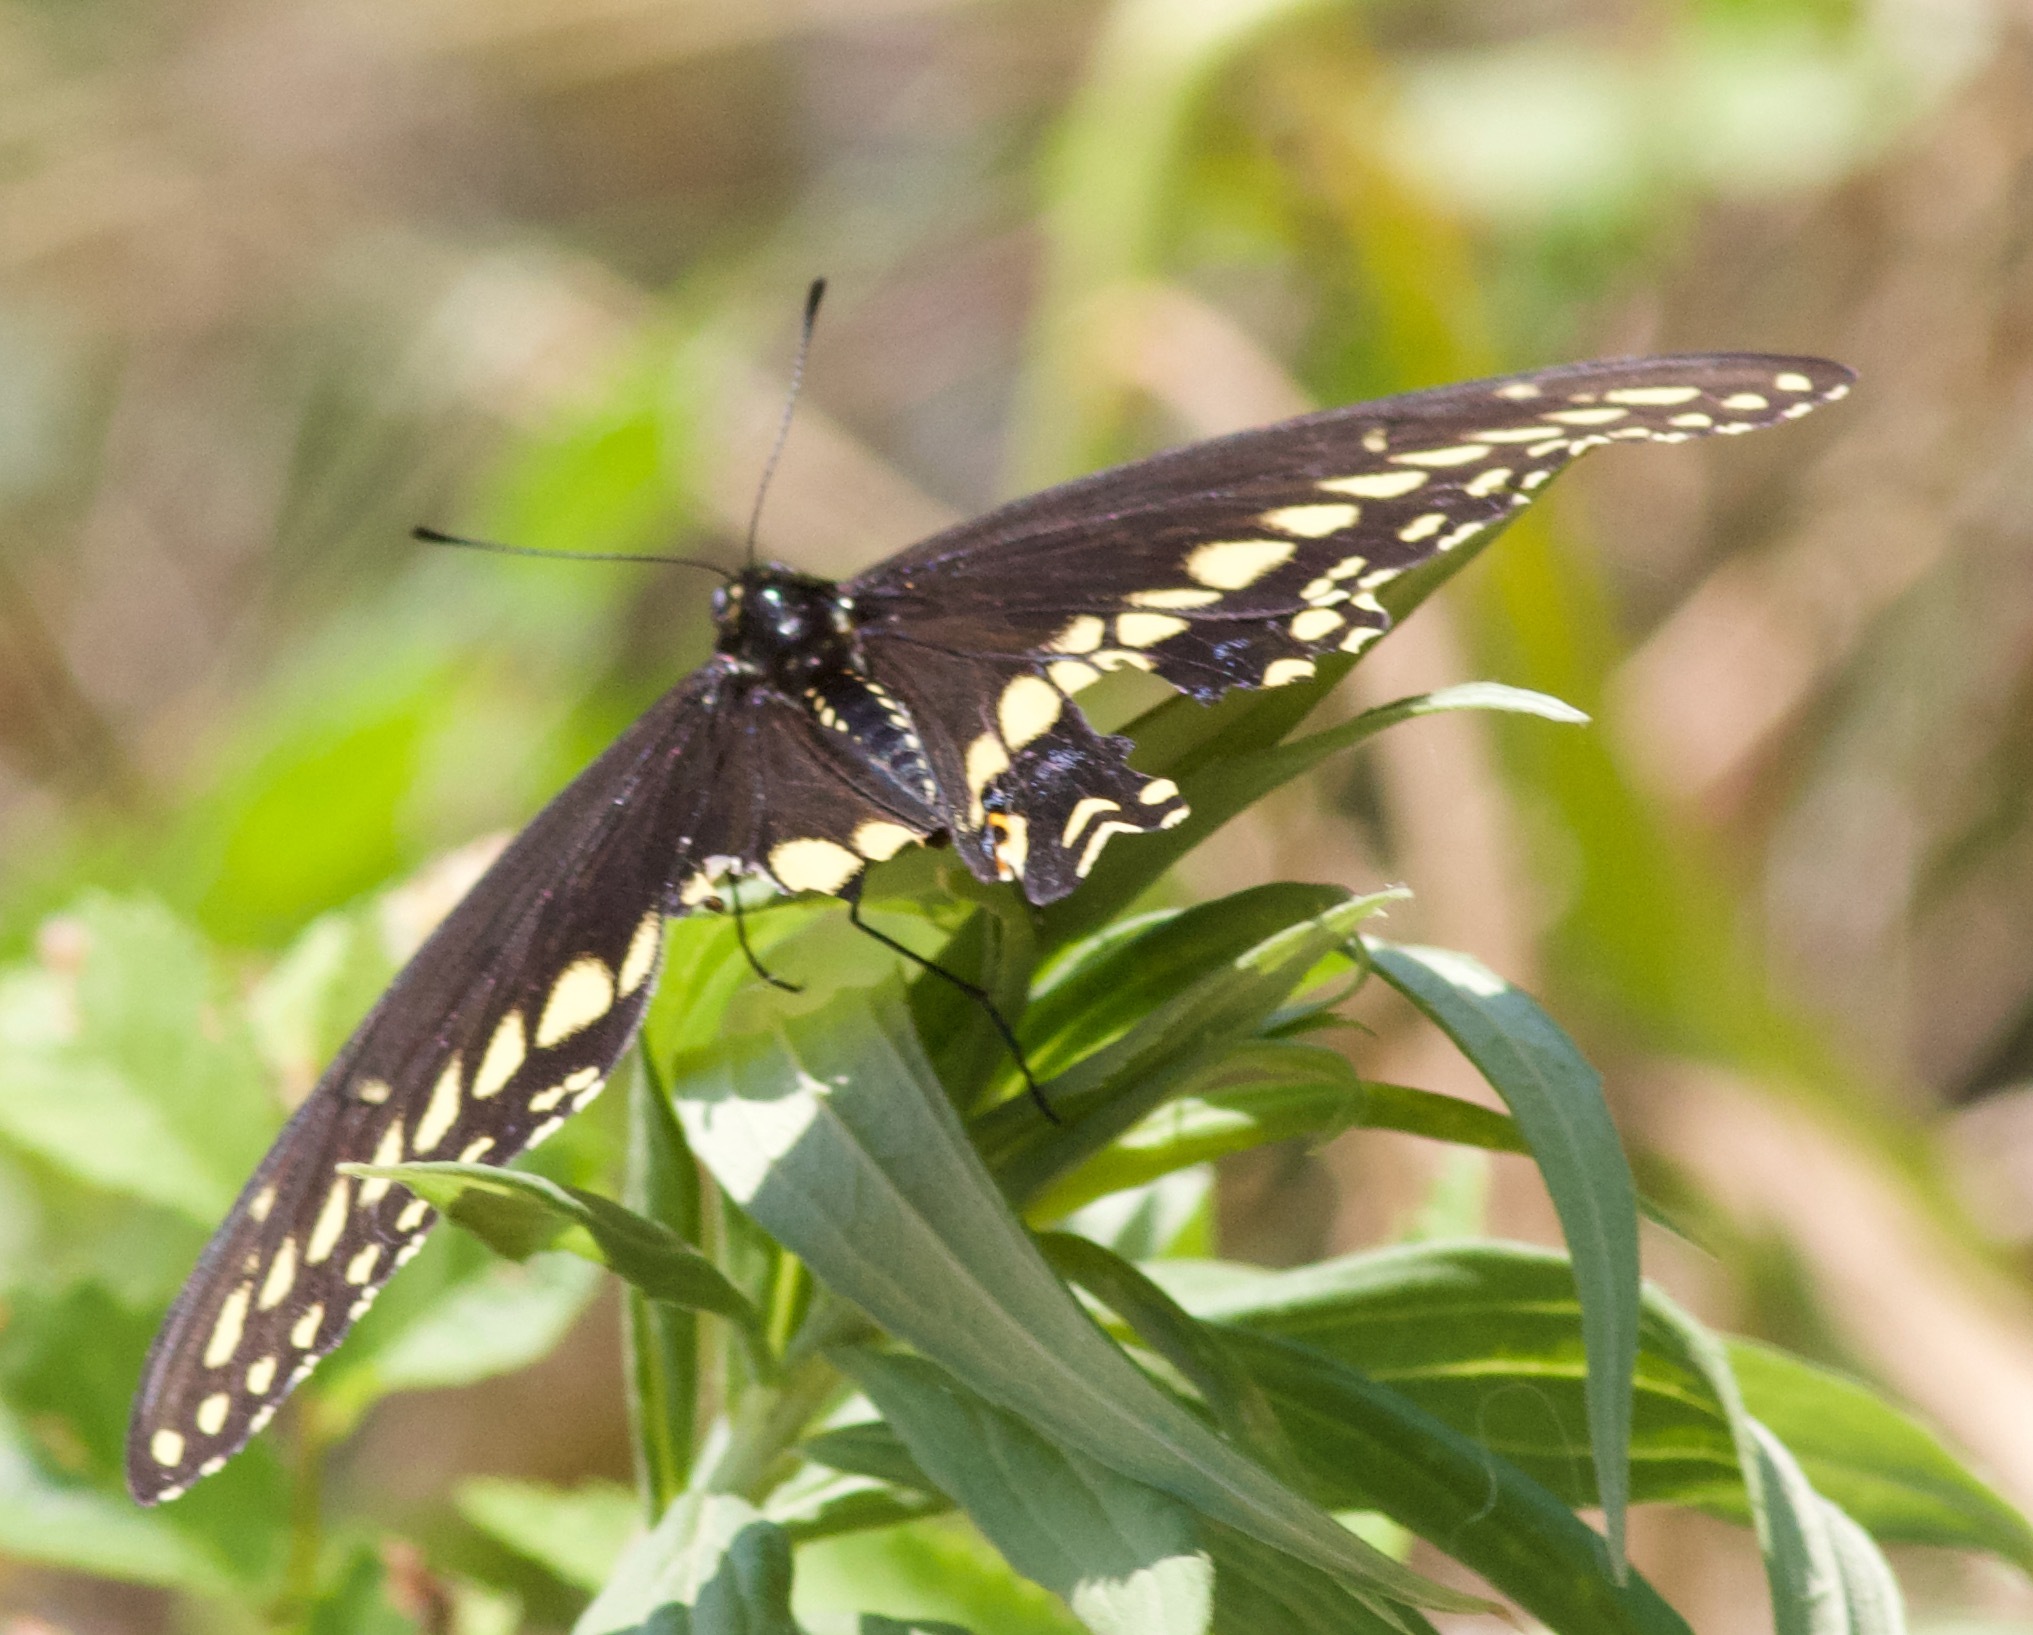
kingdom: Animalia
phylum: Arthropoda
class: Insecta
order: Lepidoptera
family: Papilionidae
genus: Papilio
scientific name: Papilio polyxenes
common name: Black swallowtail
